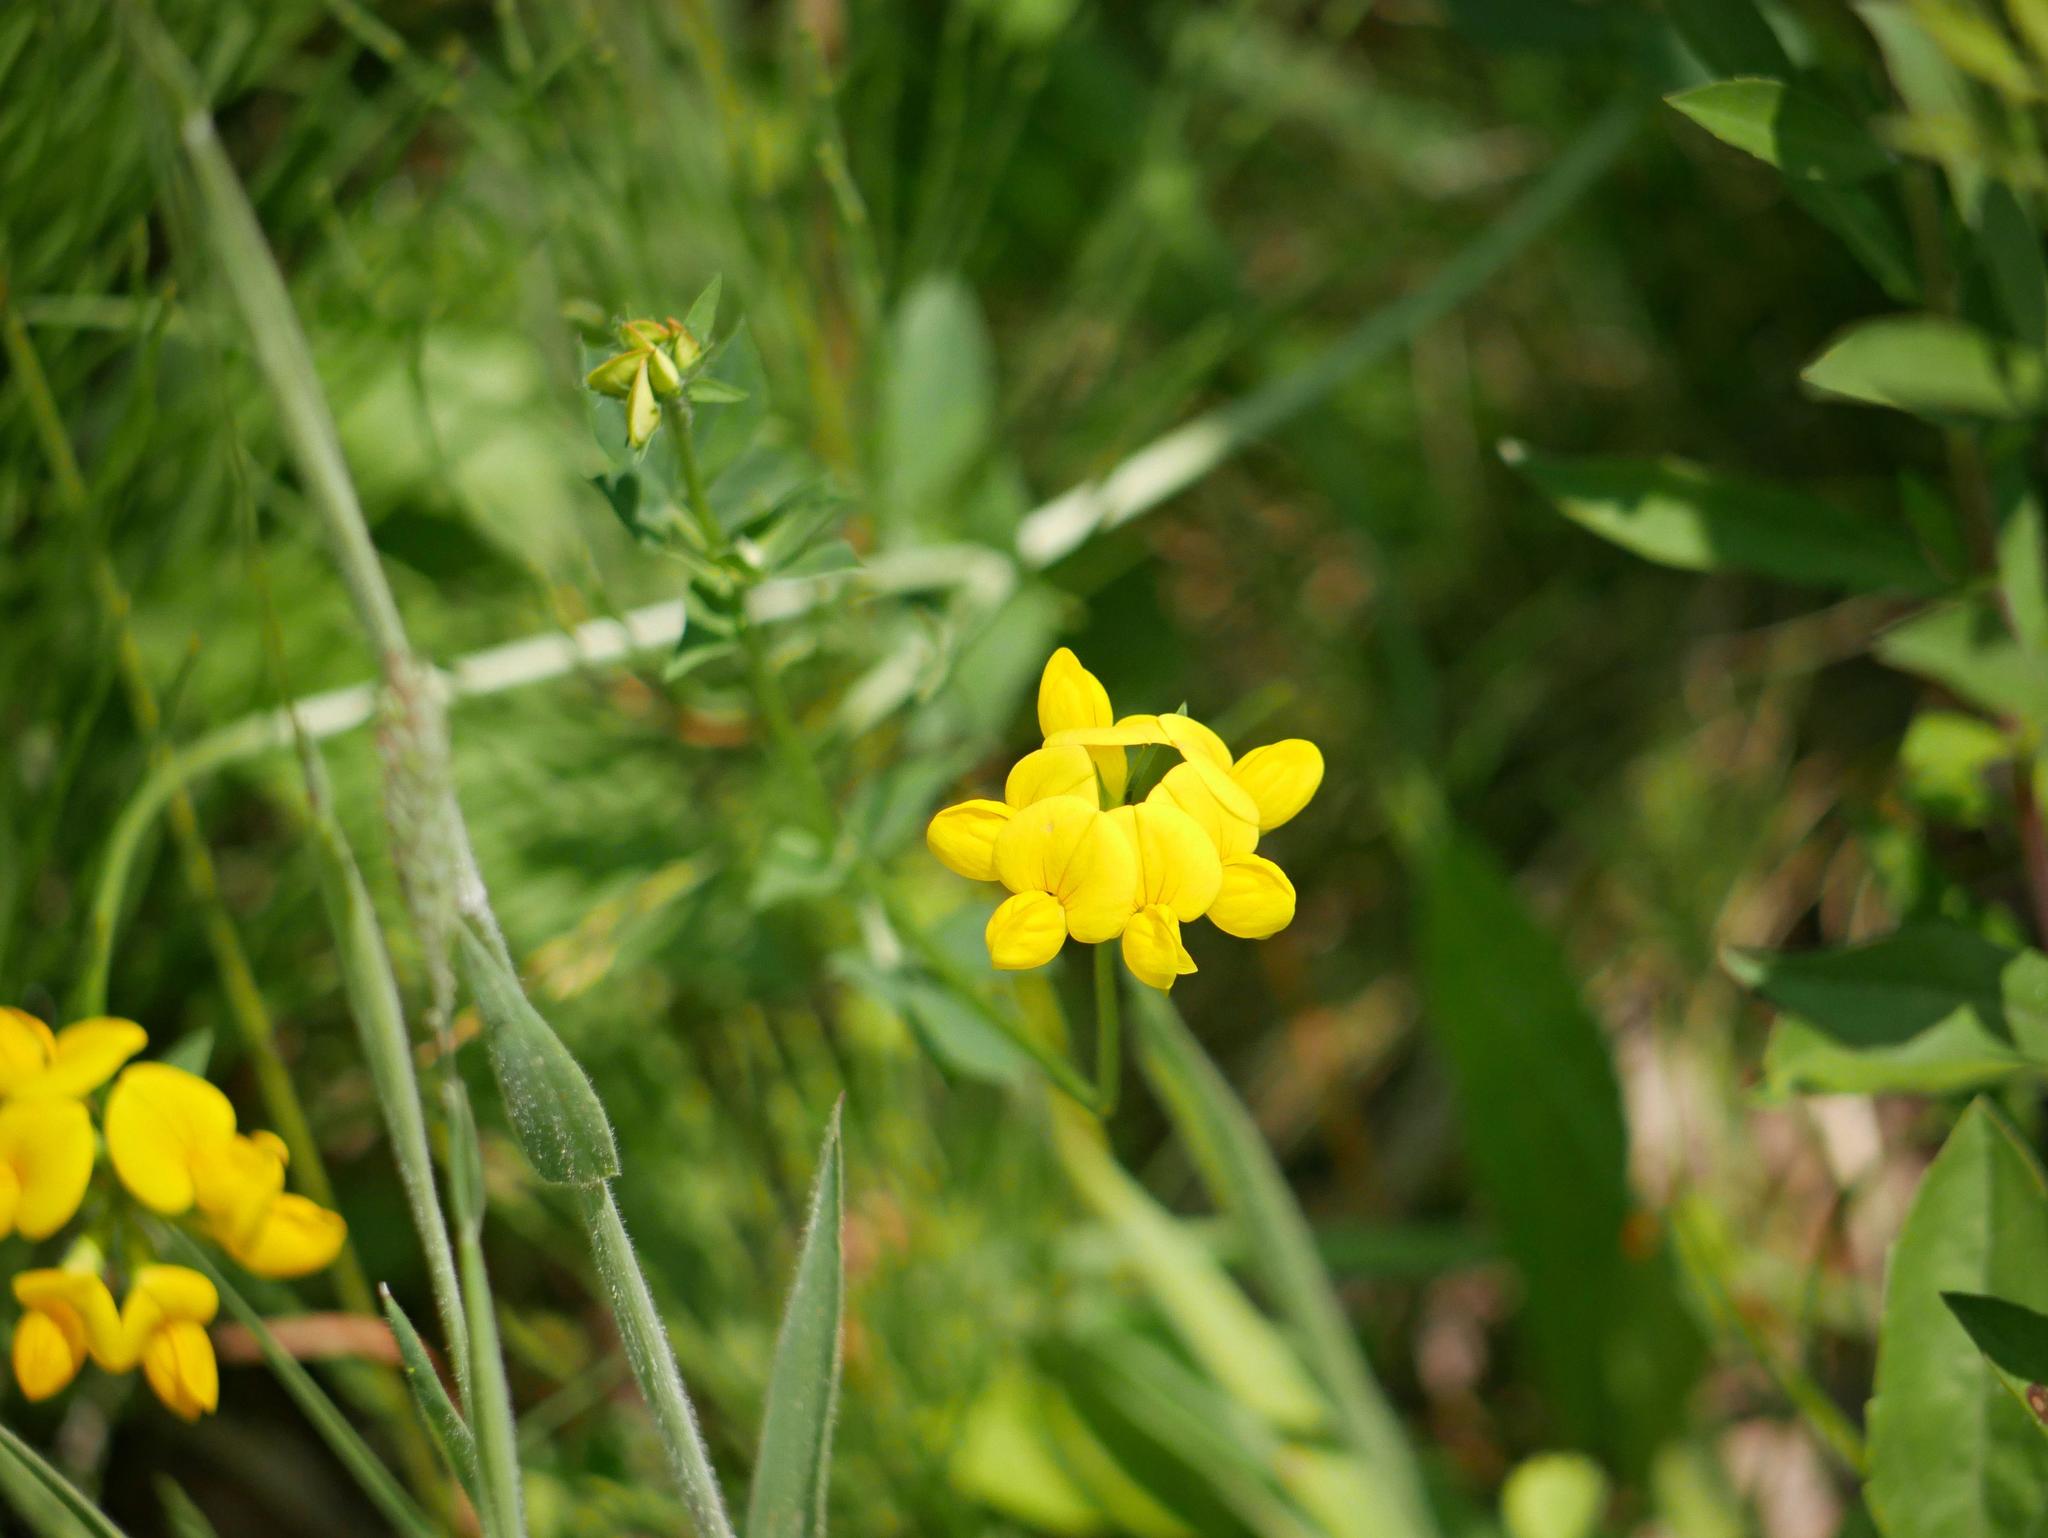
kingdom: Plantae
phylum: Tracheophyta
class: Magnoliopsida
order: Fabales
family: Fabaceae
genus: Lotus
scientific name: Lotus corniculatus
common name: Common bird's-foot-trefoil
